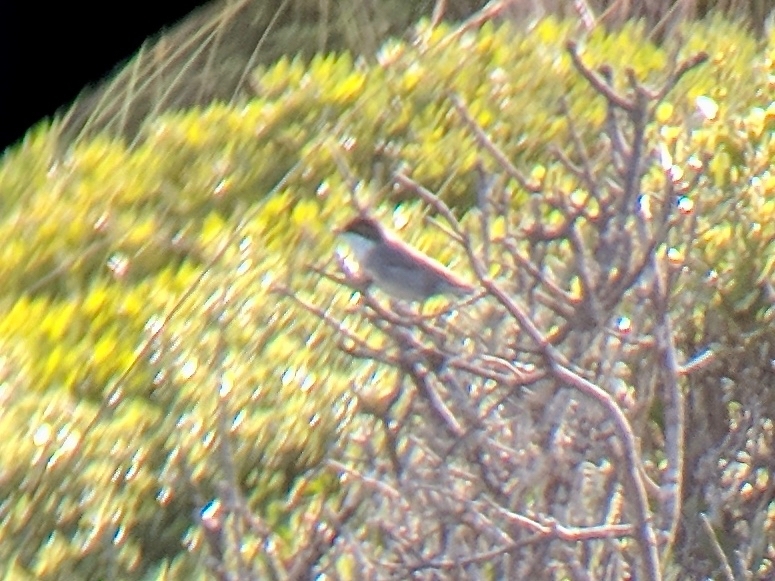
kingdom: Animalia
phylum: Chordata
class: Aves
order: Passeriformes
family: Sylviidae
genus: Curruca
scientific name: Curruca melanocephala
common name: Sardinian warbler
